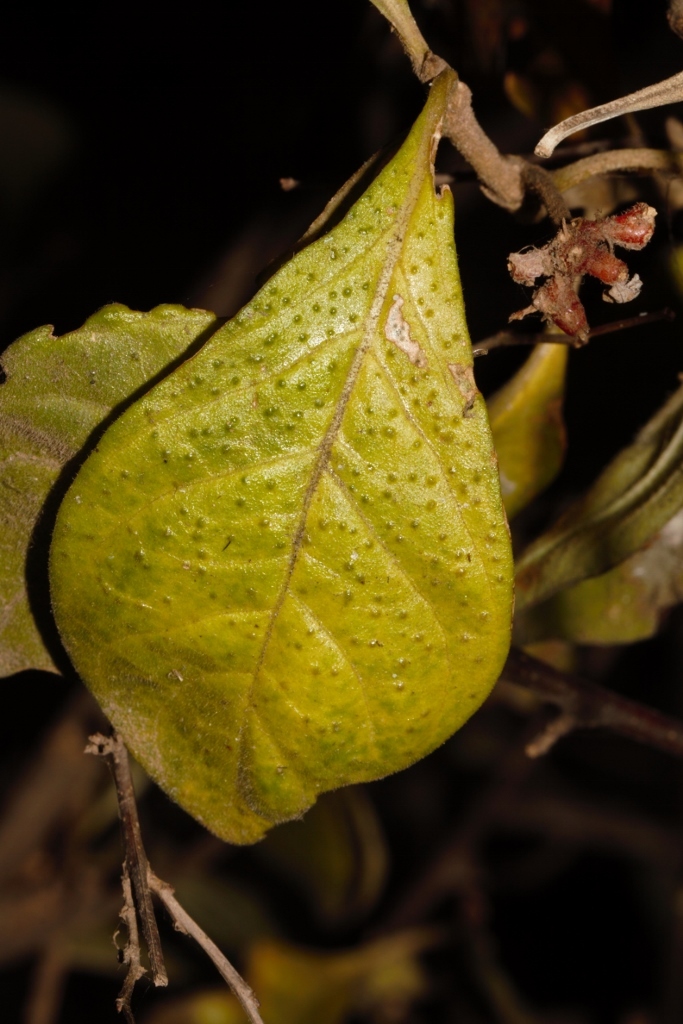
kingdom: Plantae
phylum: Tracheophyta
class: Magnoliopsida
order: Gentianales
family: Rubiaceae
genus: Psychotria
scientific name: Psychotria punctata
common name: Dotted wild coffee
